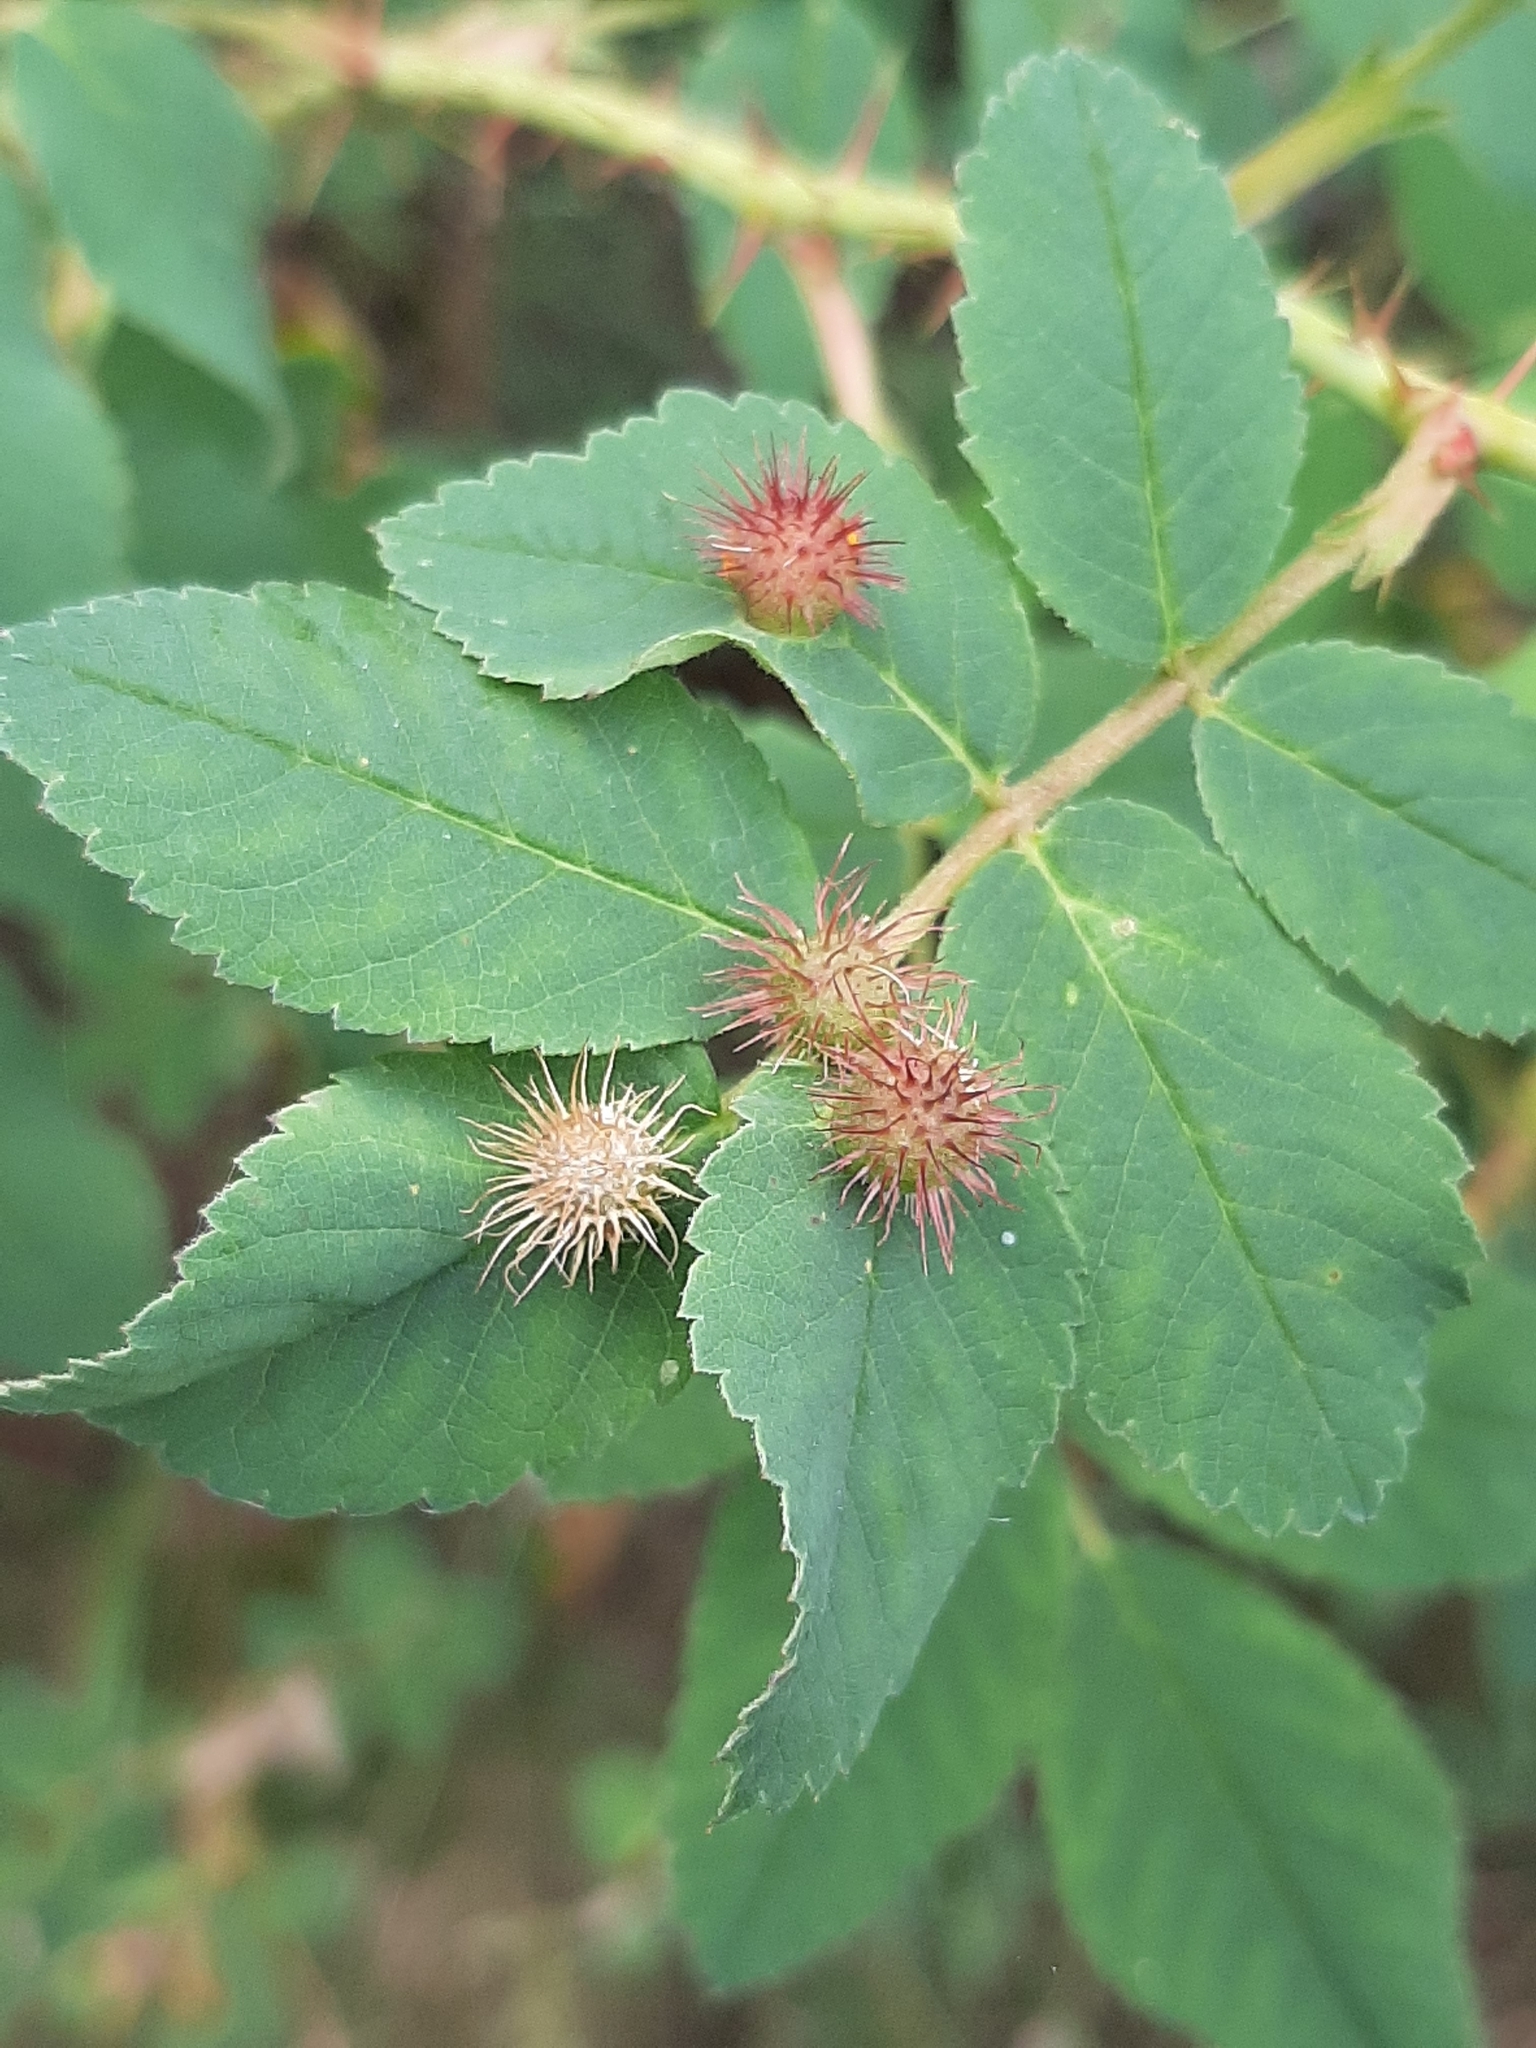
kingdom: Animalia
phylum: Arthropoda
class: Insecta
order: Hymenoptera
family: Cynipidae
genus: Diplolepis
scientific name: Diplolepis polita
